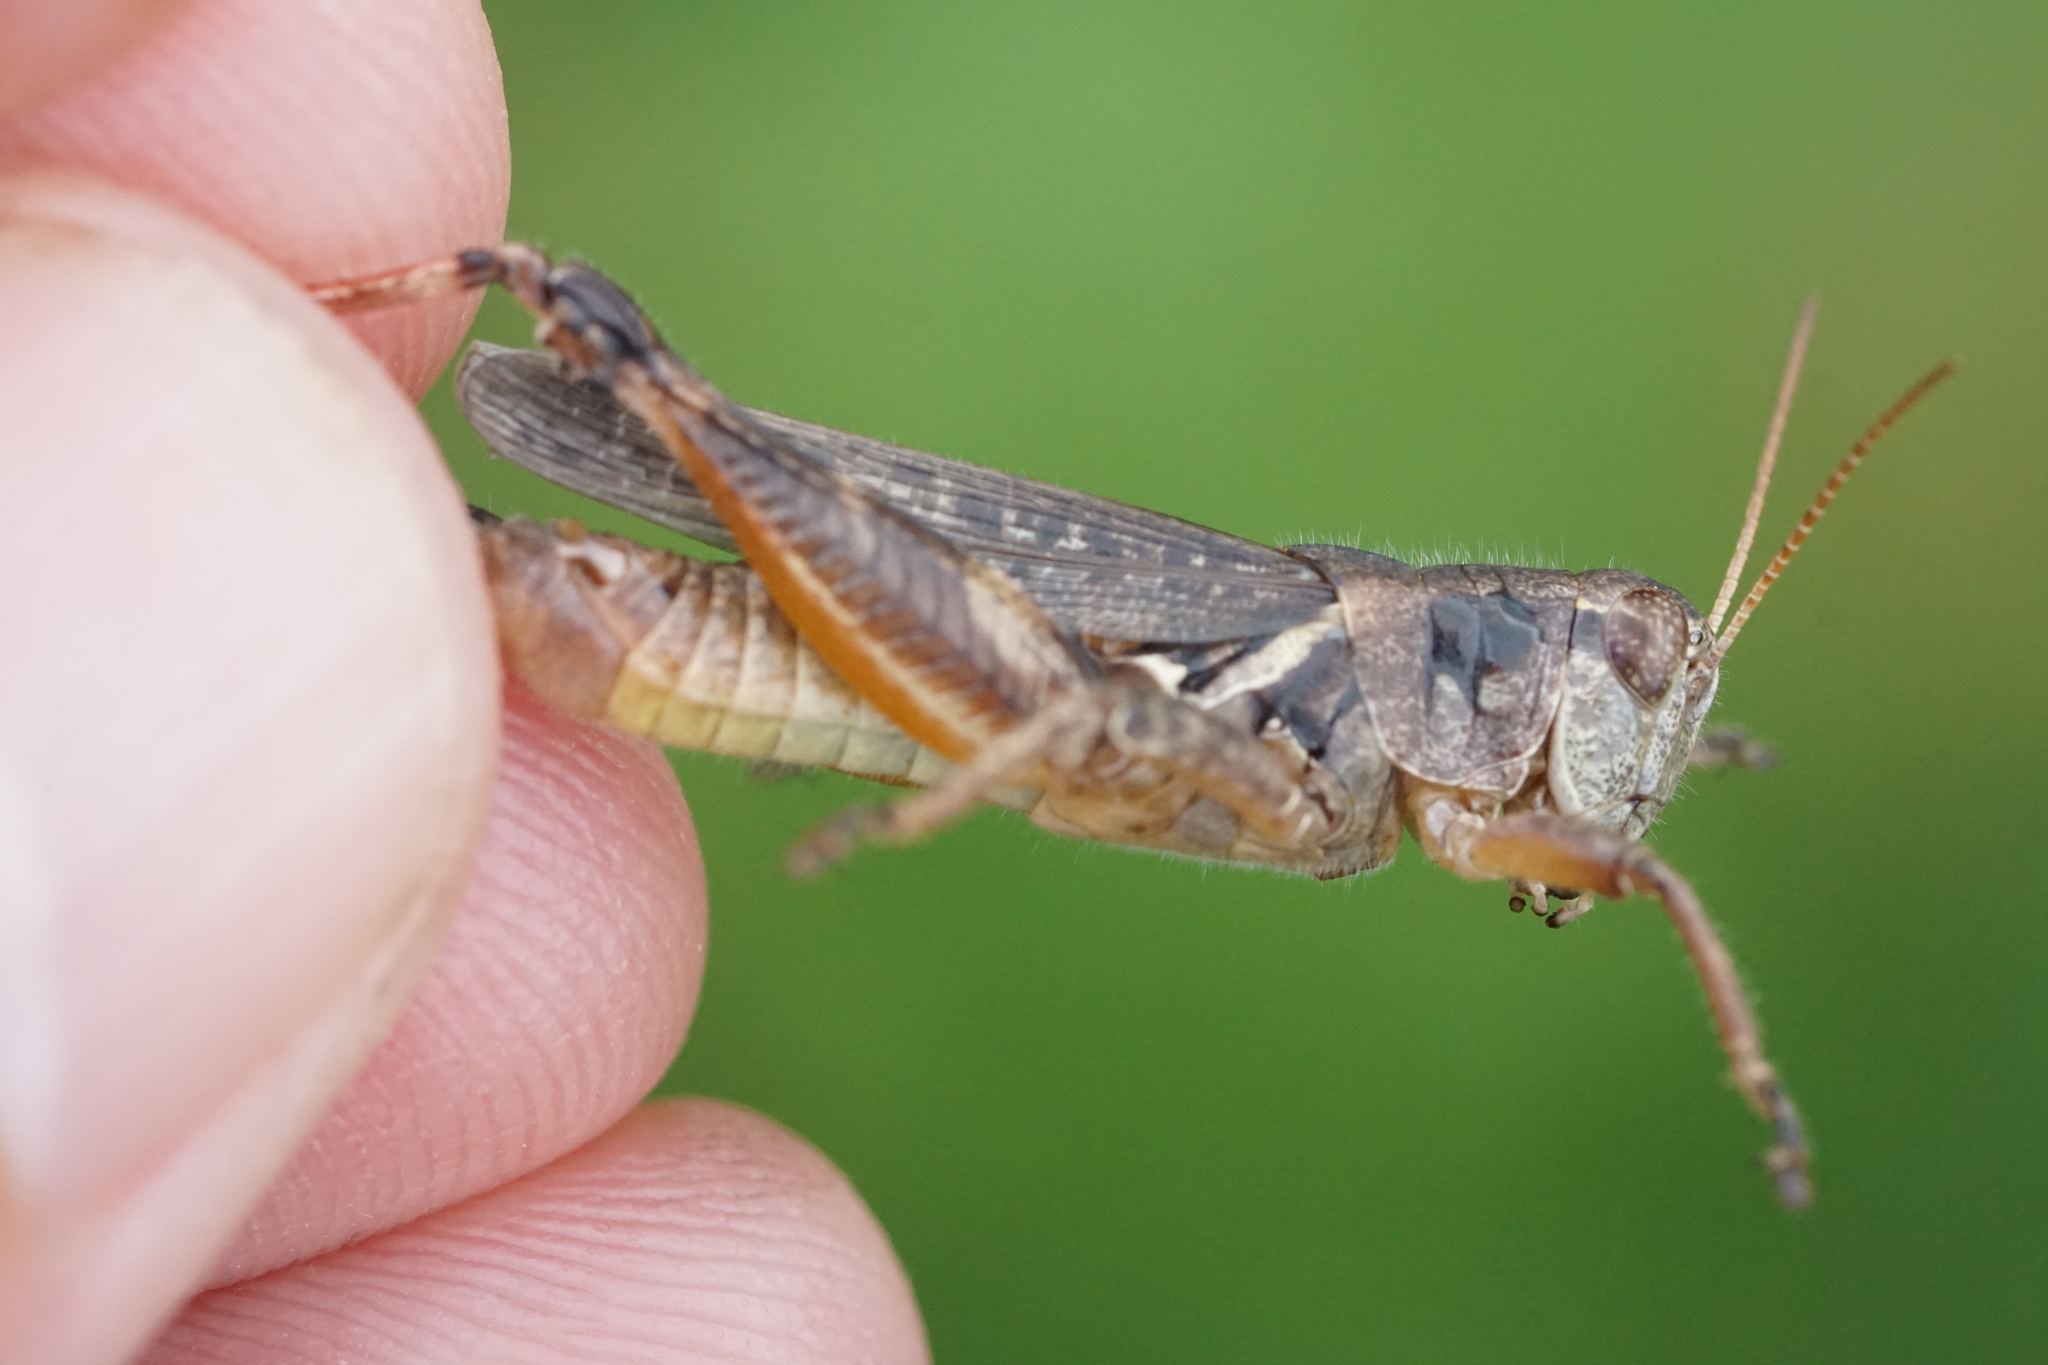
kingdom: Animalia
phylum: Arthropoda
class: Insecta
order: Orthoptera
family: Acrididae
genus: Melanoplus
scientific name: Melanoplus keeleri
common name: Keeler grasshopper
